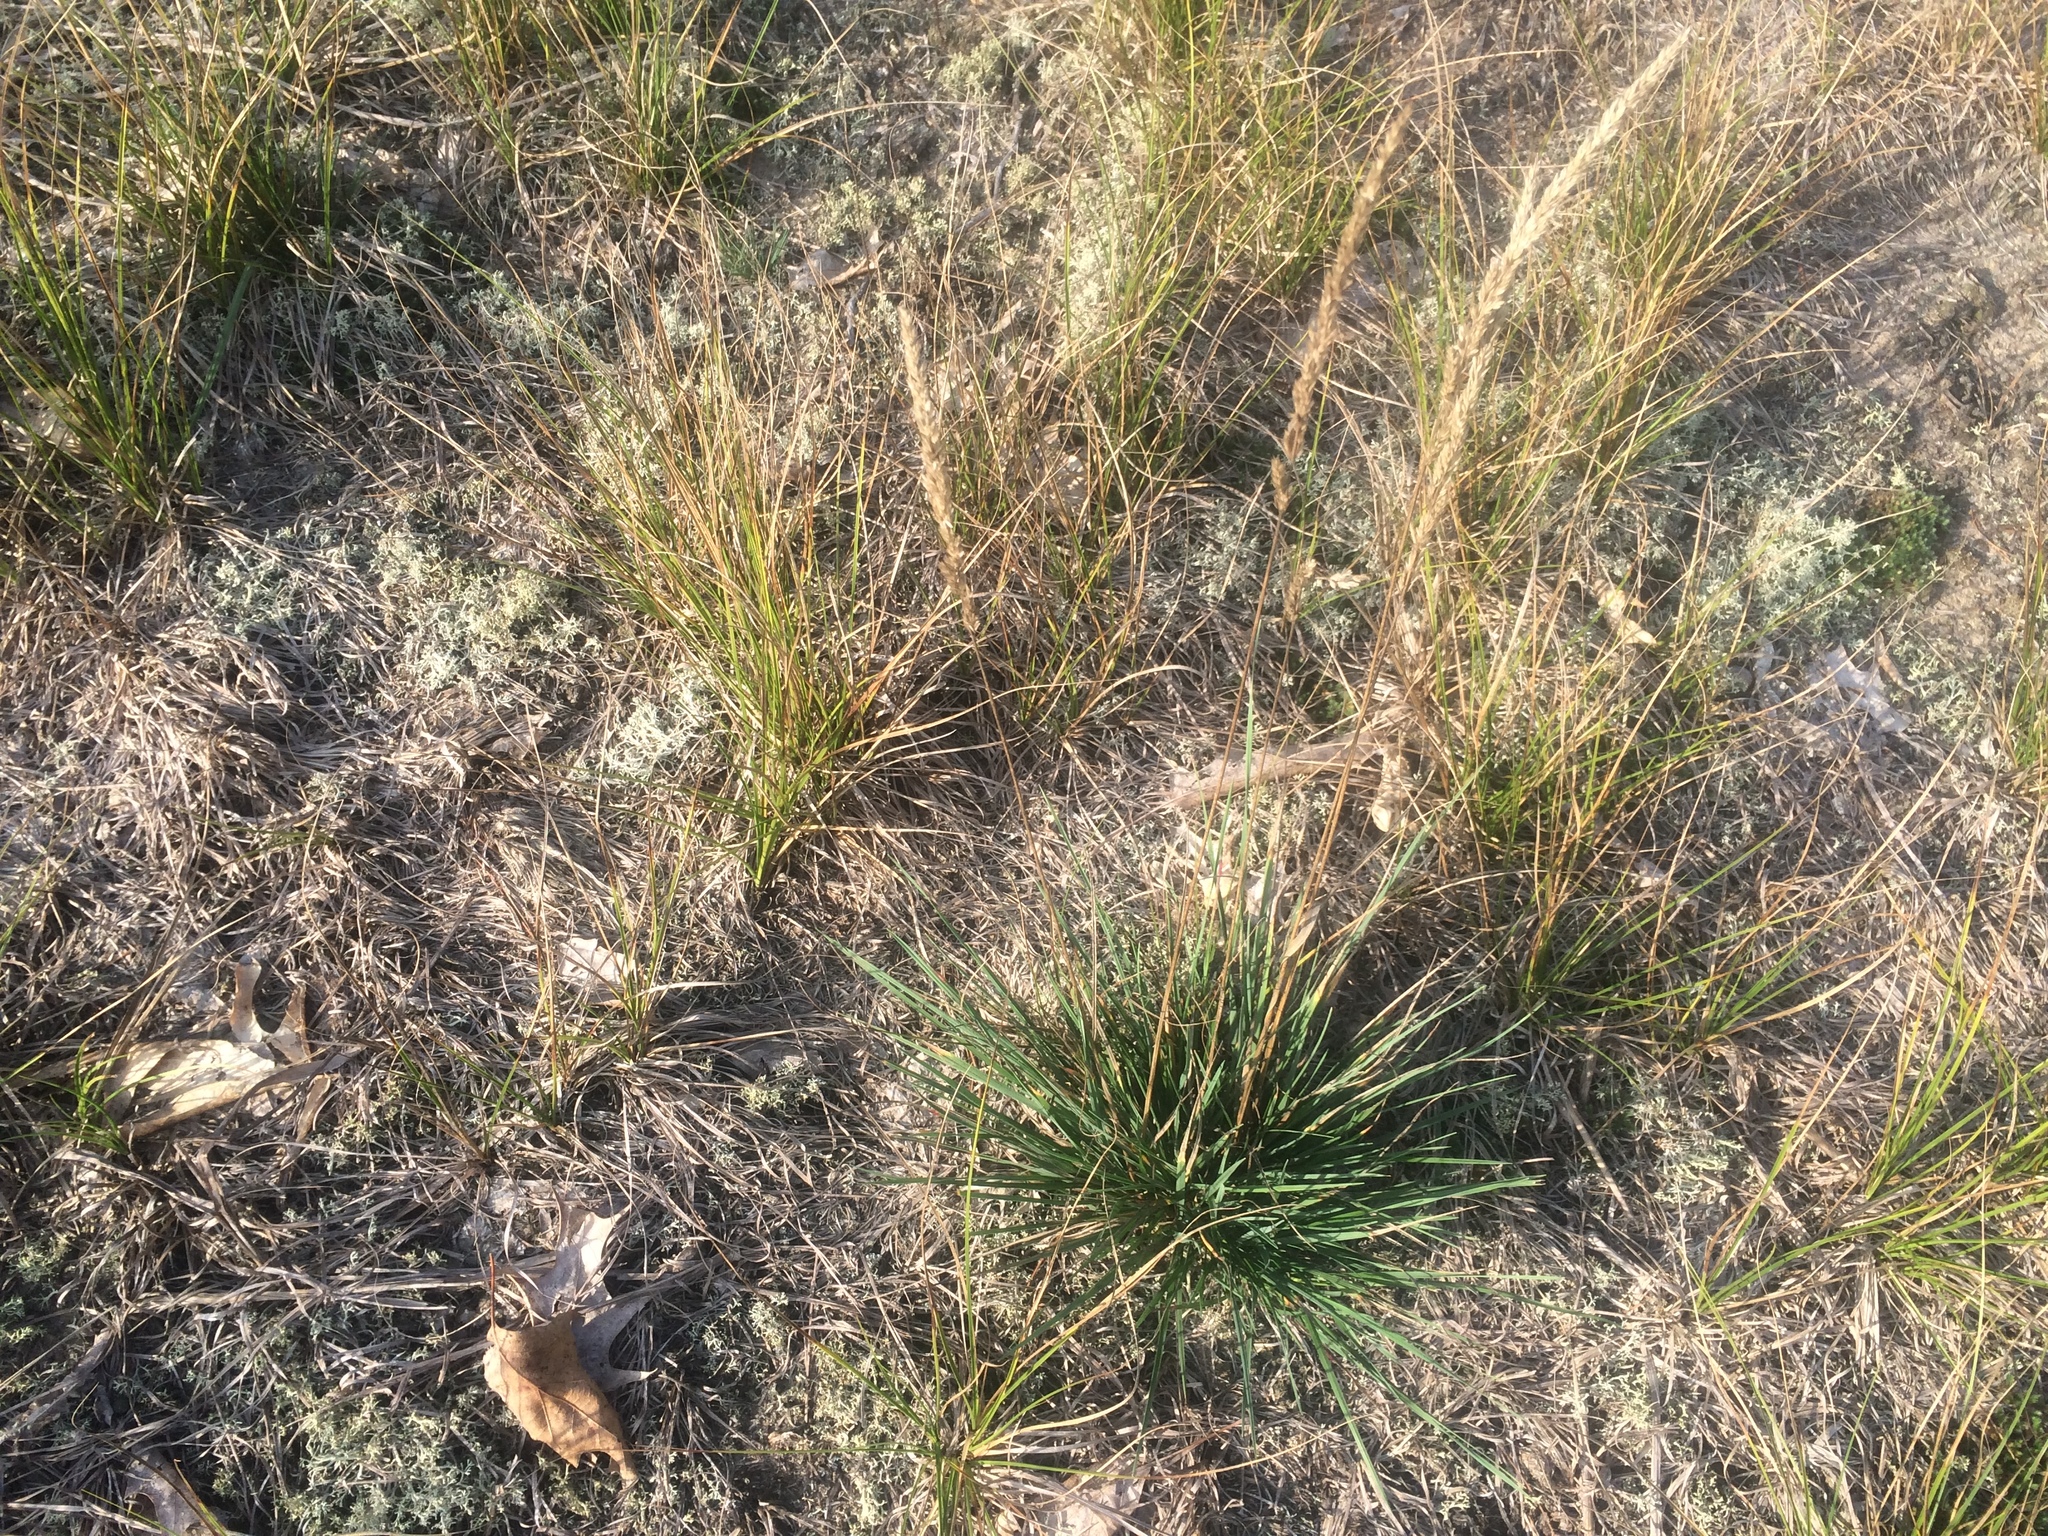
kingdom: Plantae
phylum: Tracheophyta
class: Liliopsida
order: Poales
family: Poaceae
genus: Koeleria
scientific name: Koeleria macrantha
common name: Crested hair-grass
